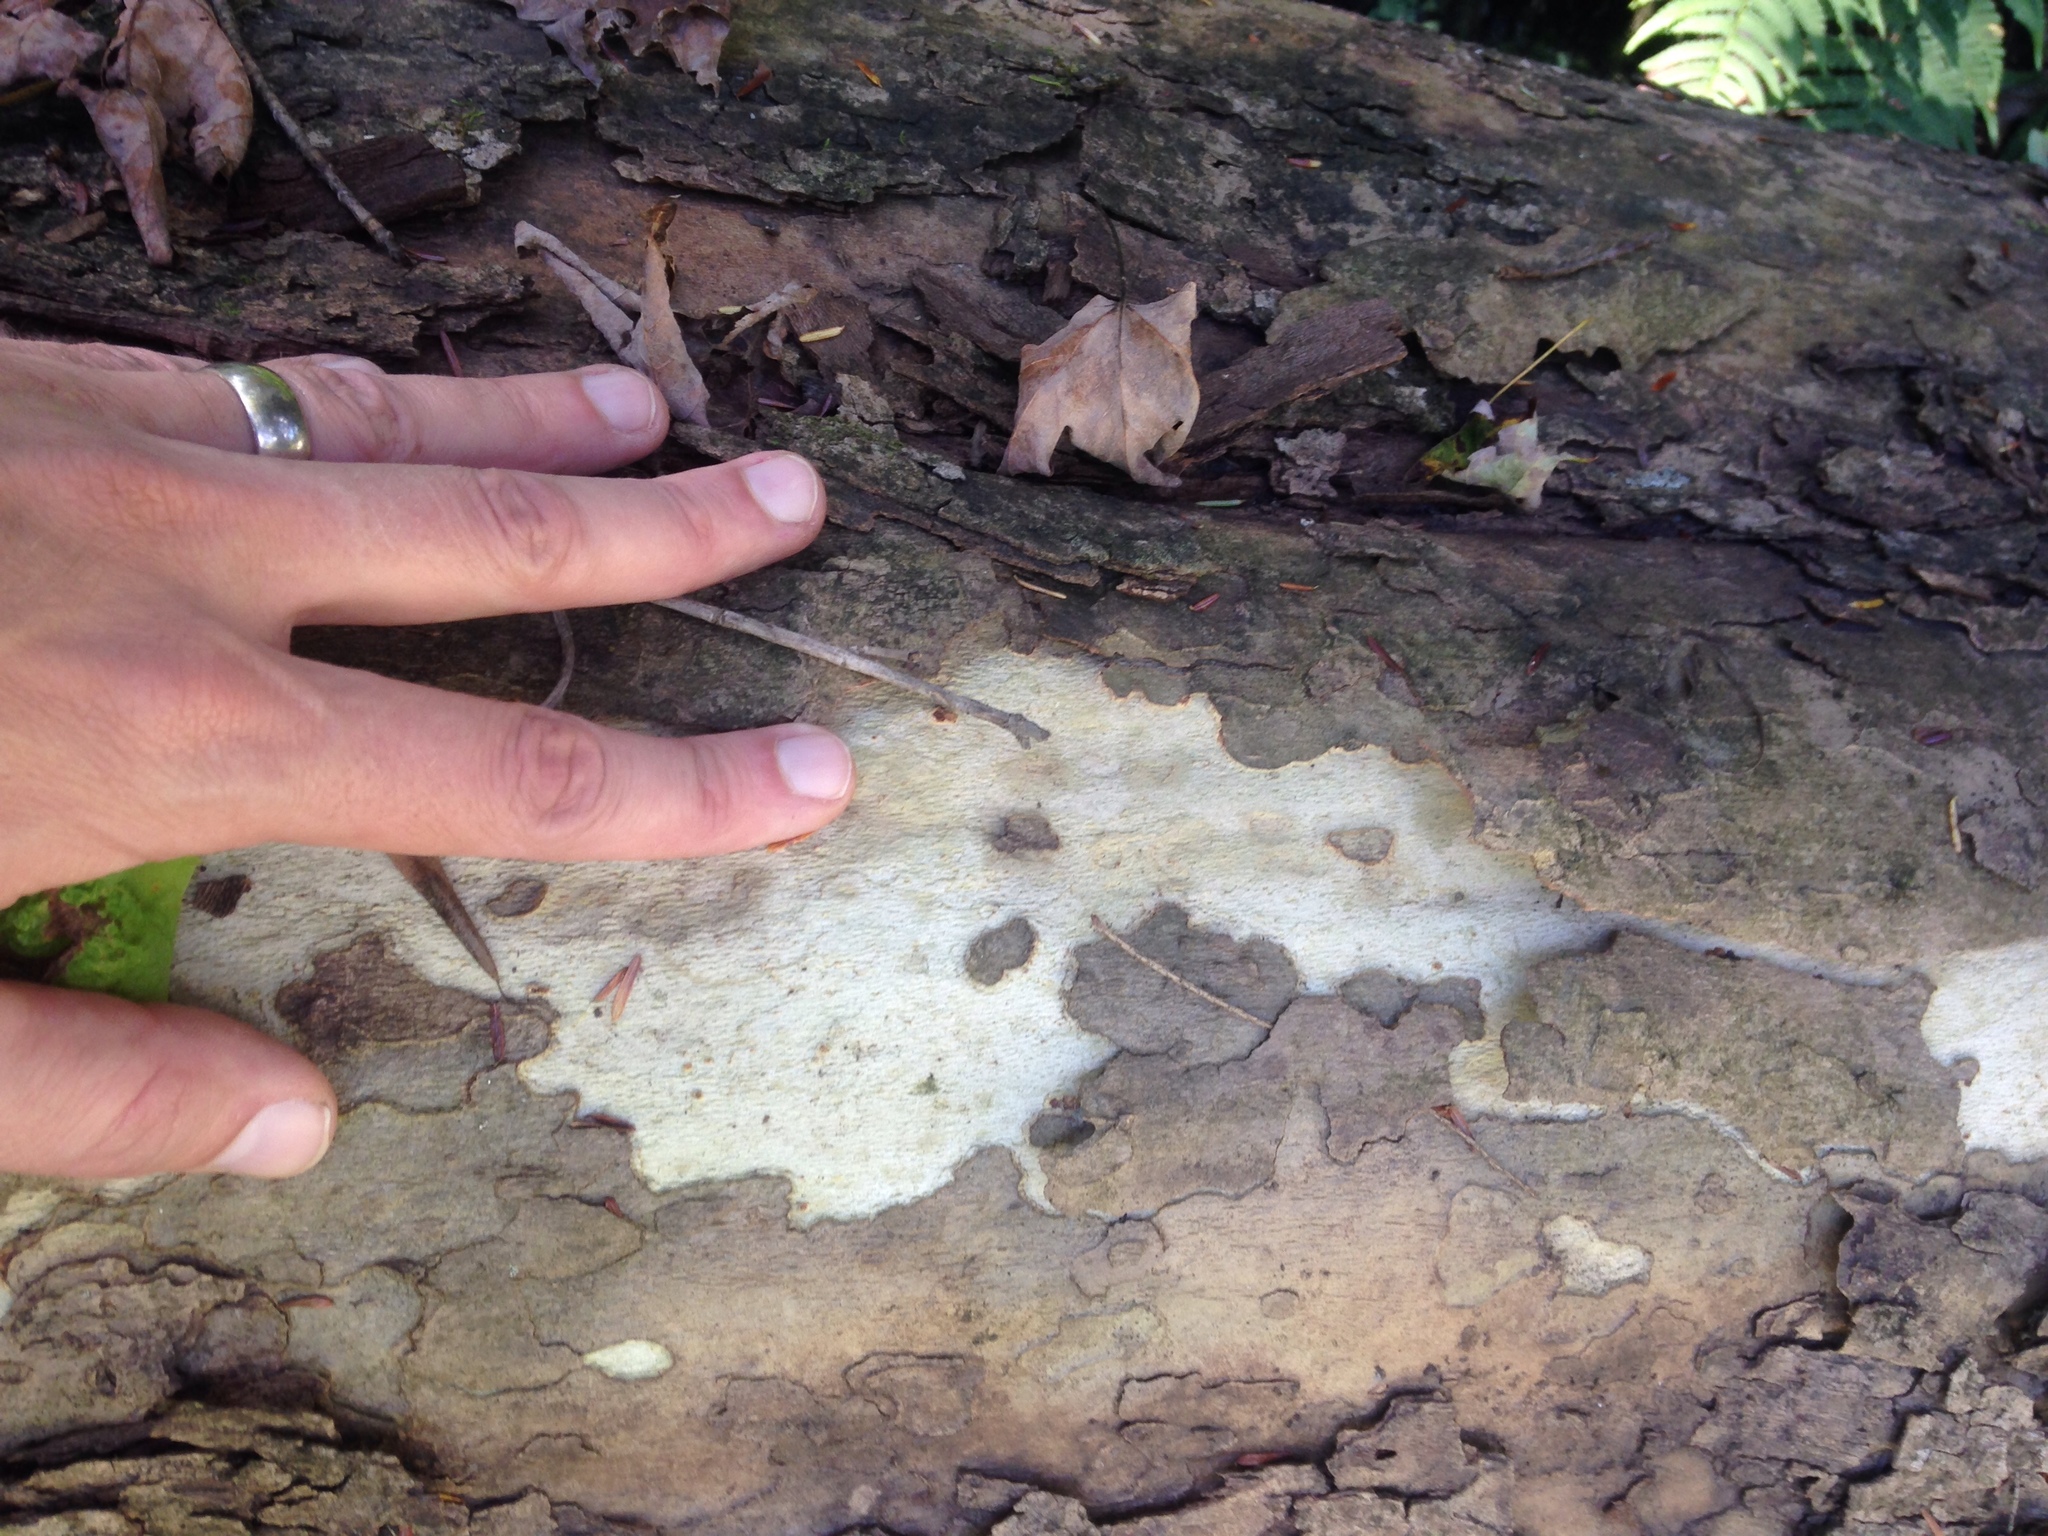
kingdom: Plantae
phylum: Tracheophyta
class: Magnoliopsida
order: Proteales
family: Platanaceae
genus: Platanus
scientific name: Platanus occidentalis
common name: American sycamore
